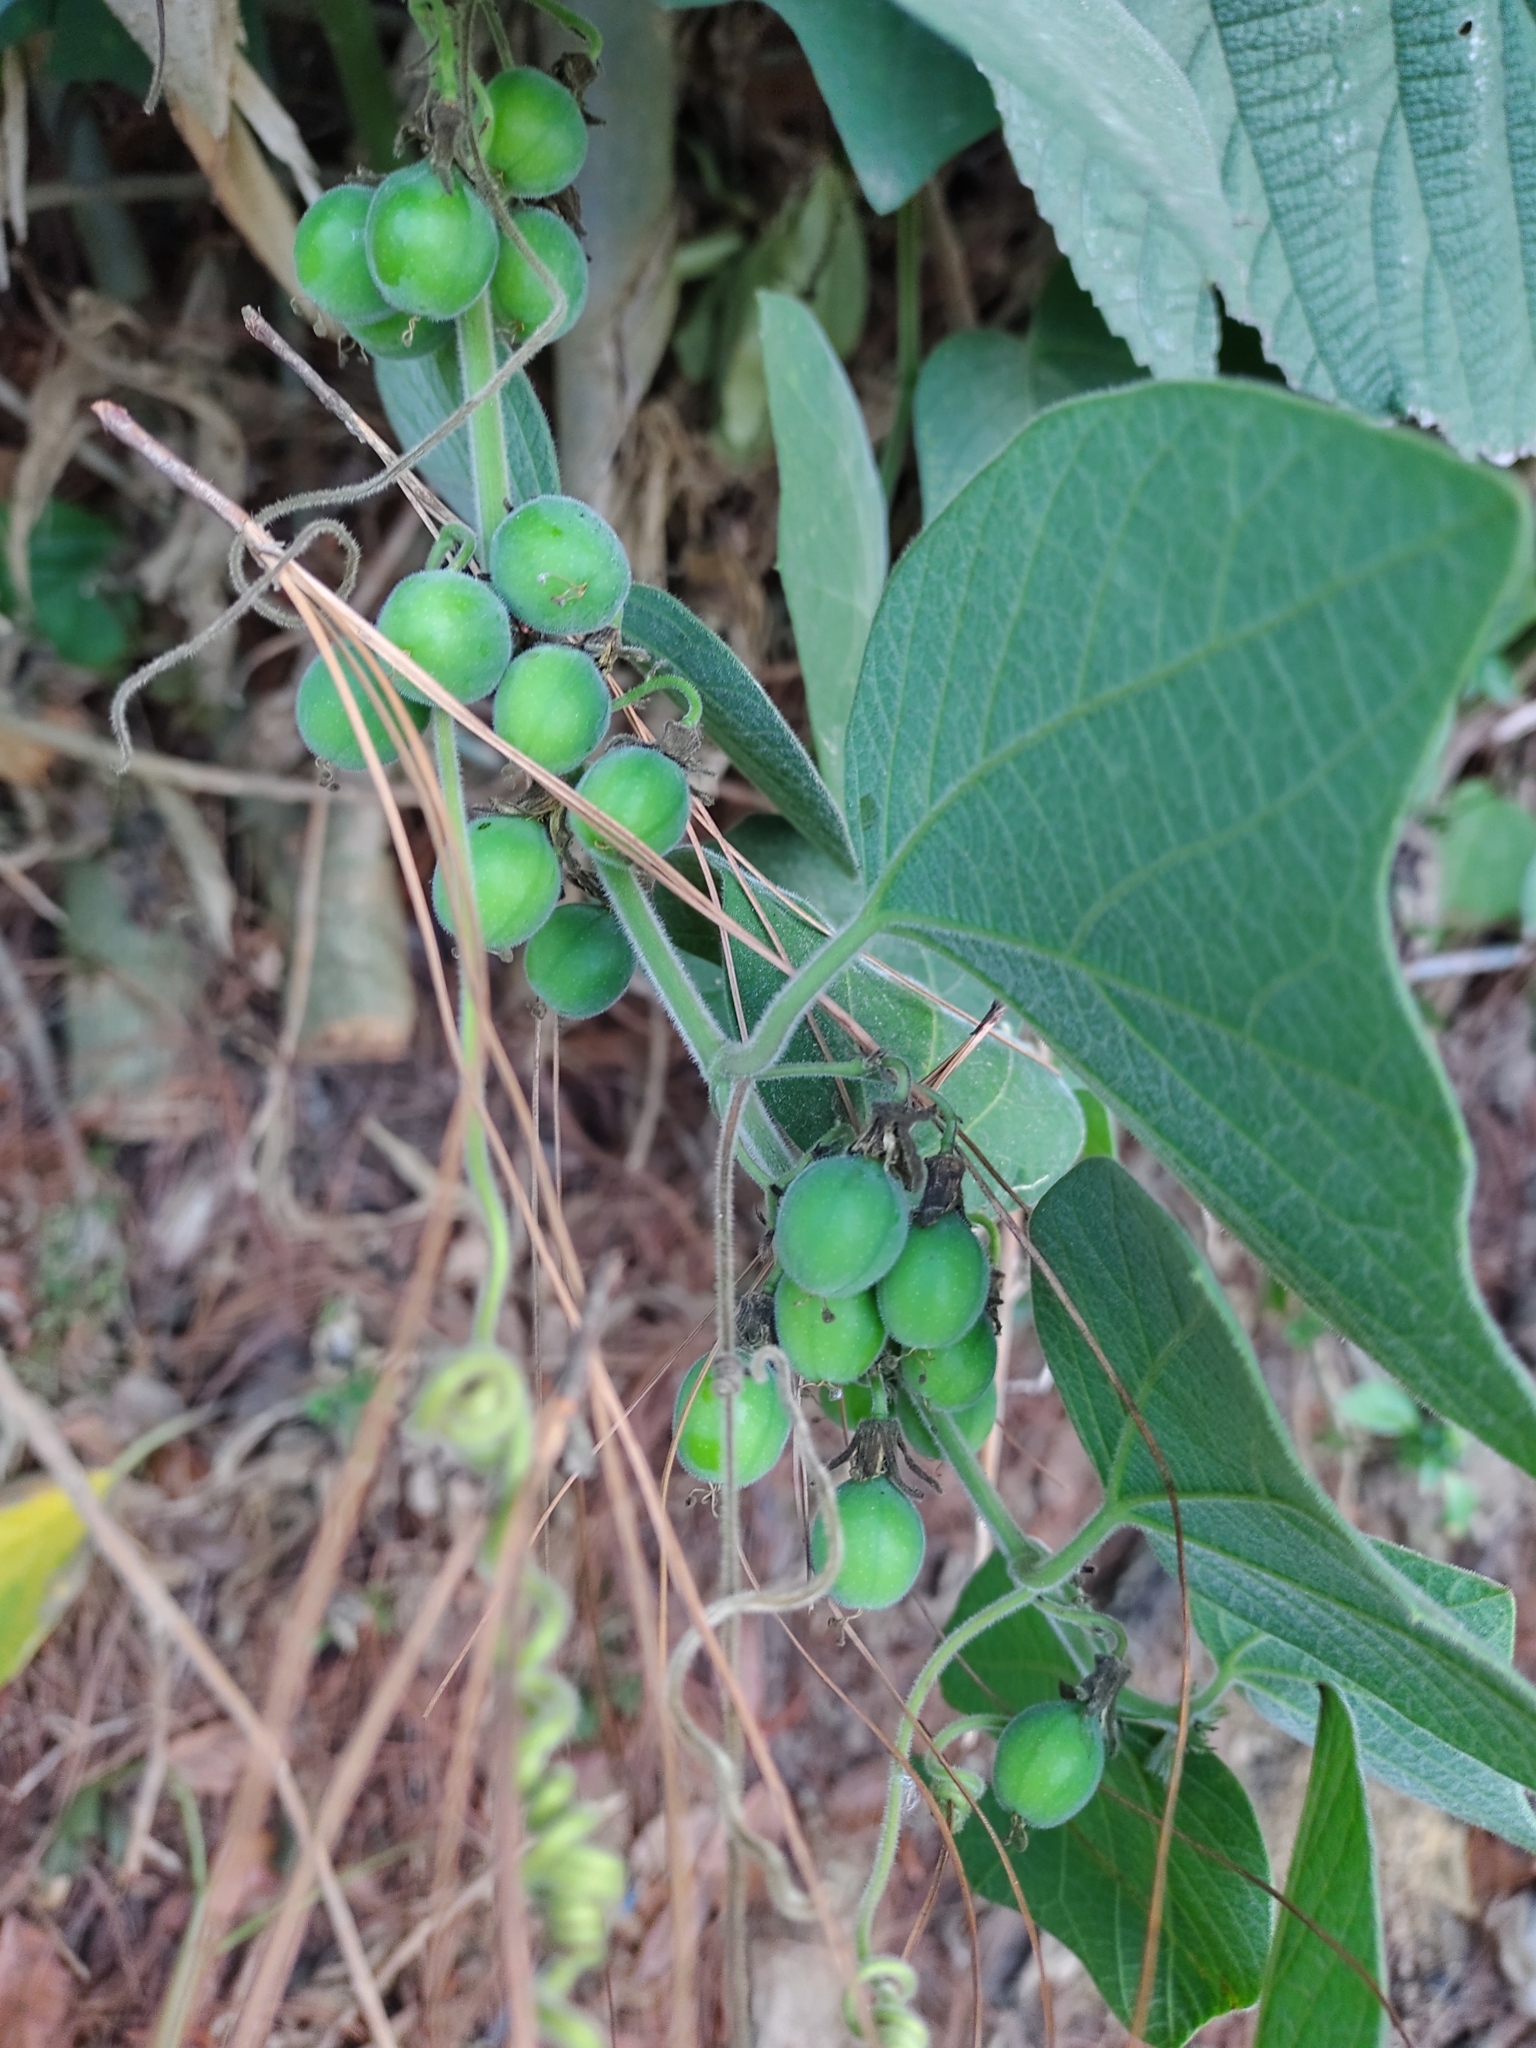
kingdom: Plantae
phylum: Tracheophyta
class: Magnoliopsida
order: Malpighiales
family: Passifloraceae
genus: Passiflora
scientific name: Passiflora sexflora
